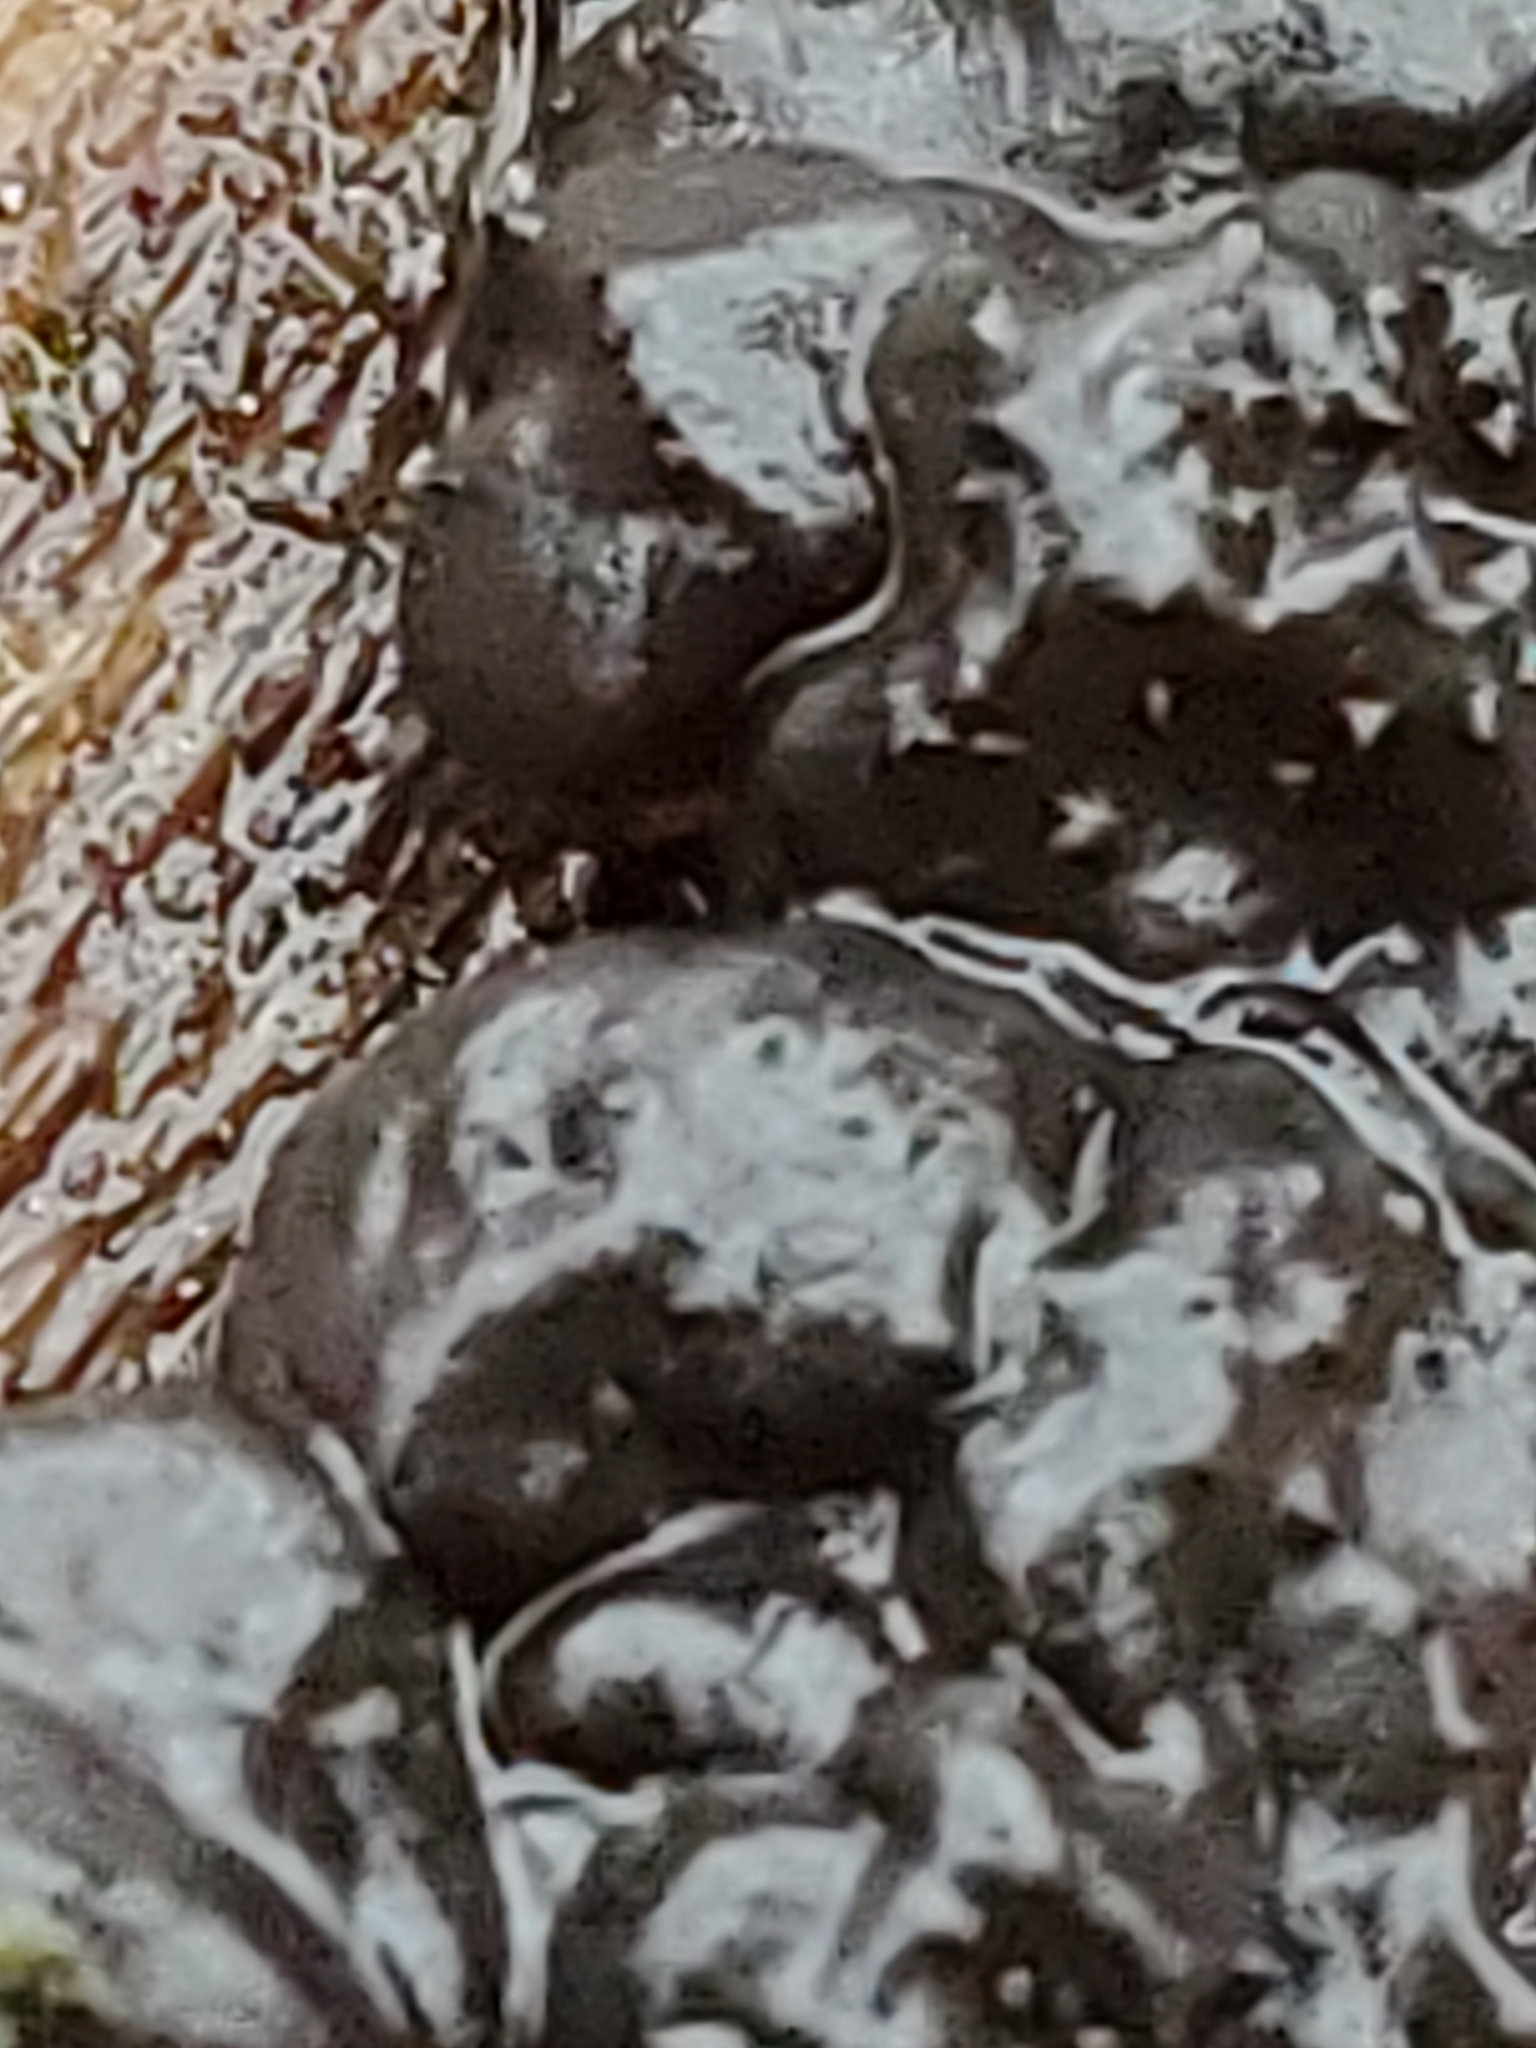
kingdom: Fungi
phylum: Basidiomycota
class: Agaricomycetes
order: Auriculariales
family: Auriculariaceae
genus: Exidia
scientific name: Exidia nigricans
